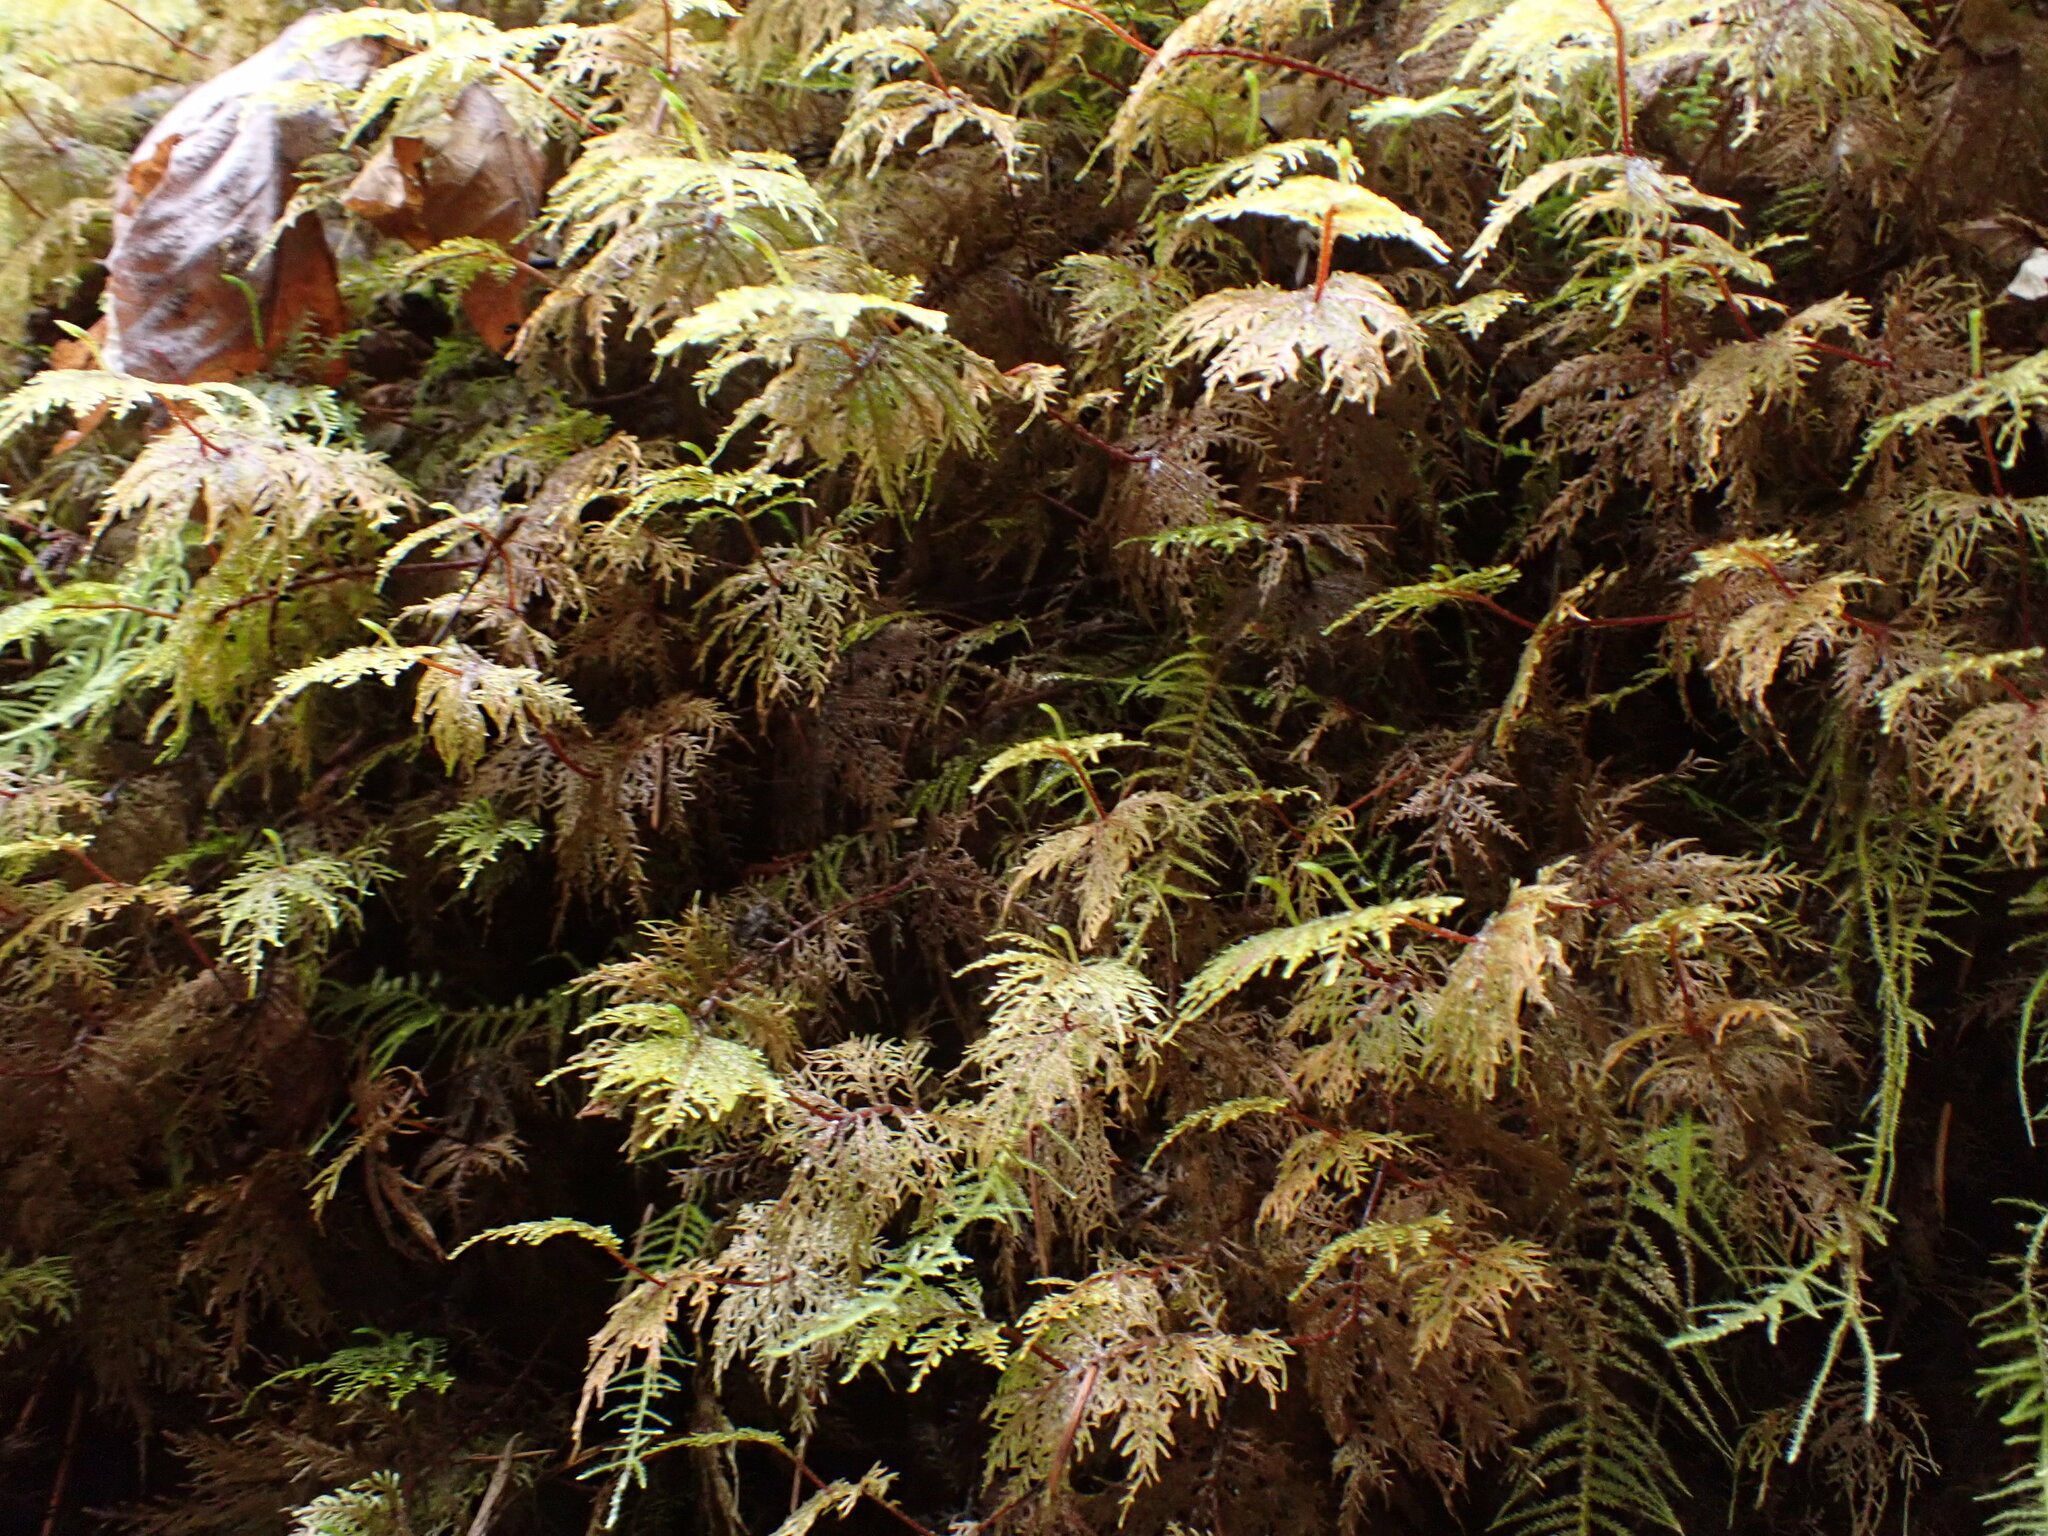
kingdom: Plantae
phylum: Bryophyta
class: Bryopsida
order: Hypnales
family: Hylocomiaceae
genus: Hylocomium
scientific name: Hylocomium splendens
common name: Stairstep moss
